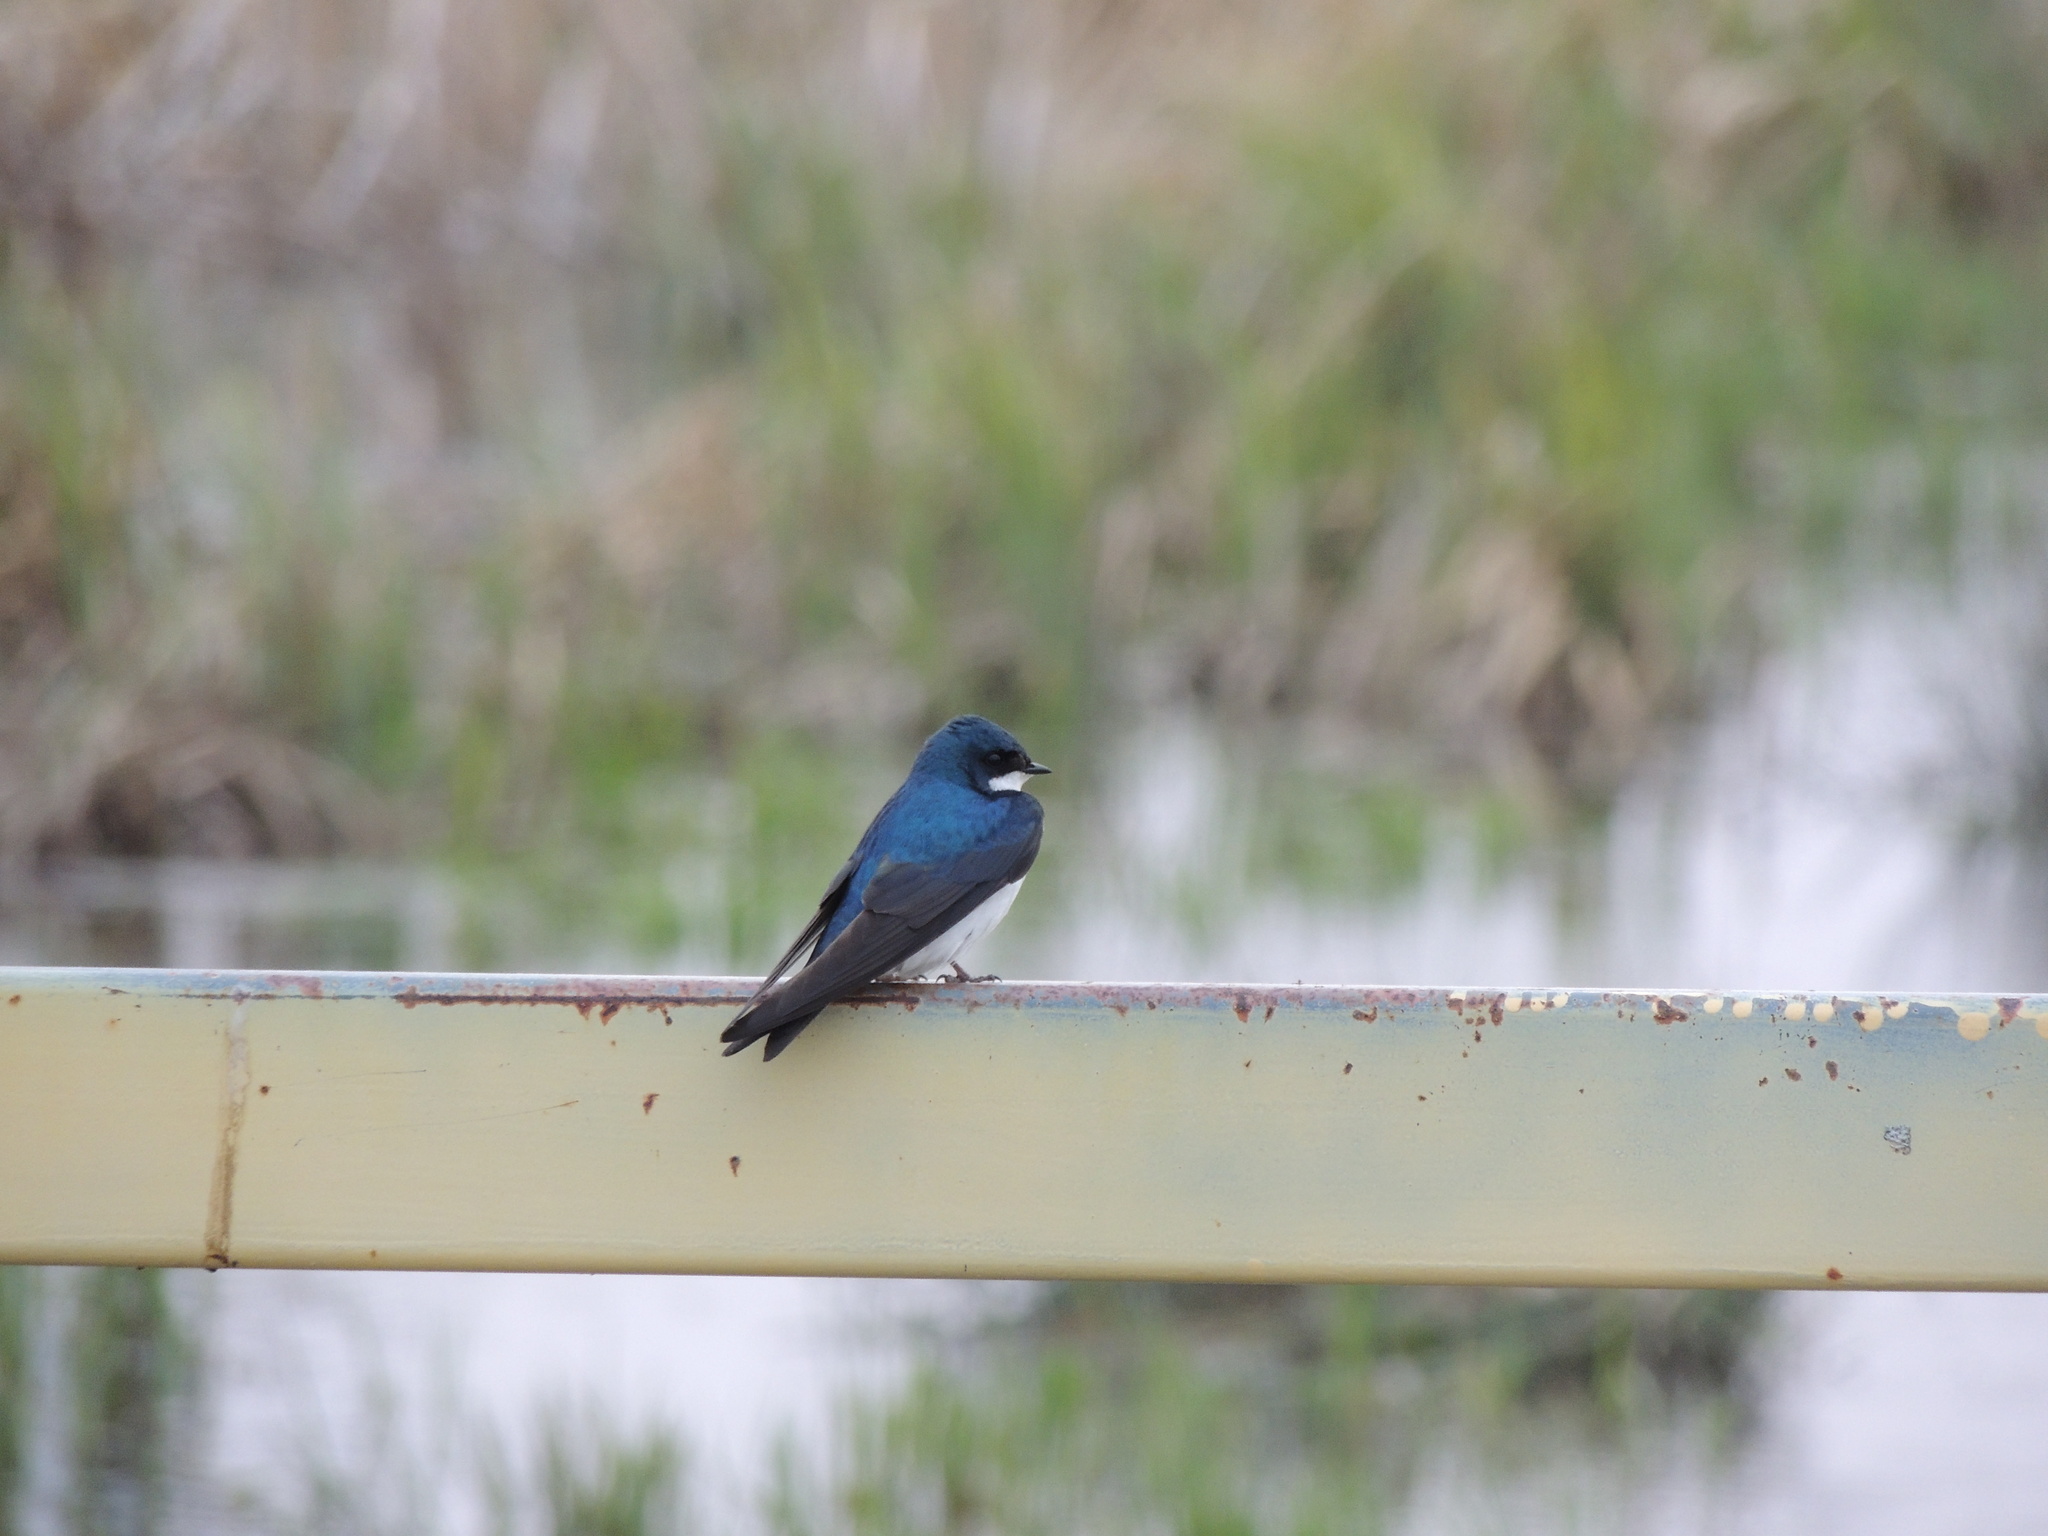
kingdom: Animalia
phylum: Chordata
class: Aves
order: Passeriformes
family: Hirundinidae
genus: Tachycineta
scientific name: Tachycineta bicolor
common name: Tree swallow
